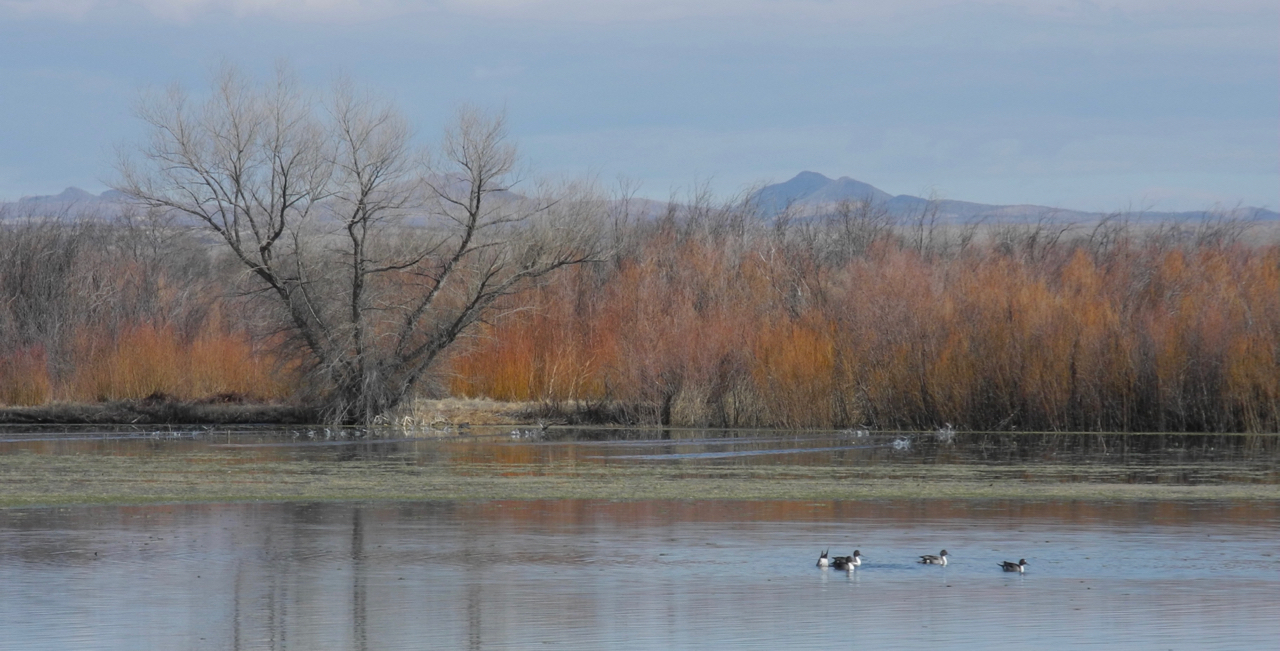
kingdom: Animalia
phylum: Chordata
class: Aves
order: Anseriformes
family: Anatidae
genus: Anas
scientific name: Anas acuta
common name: Northern pintail
